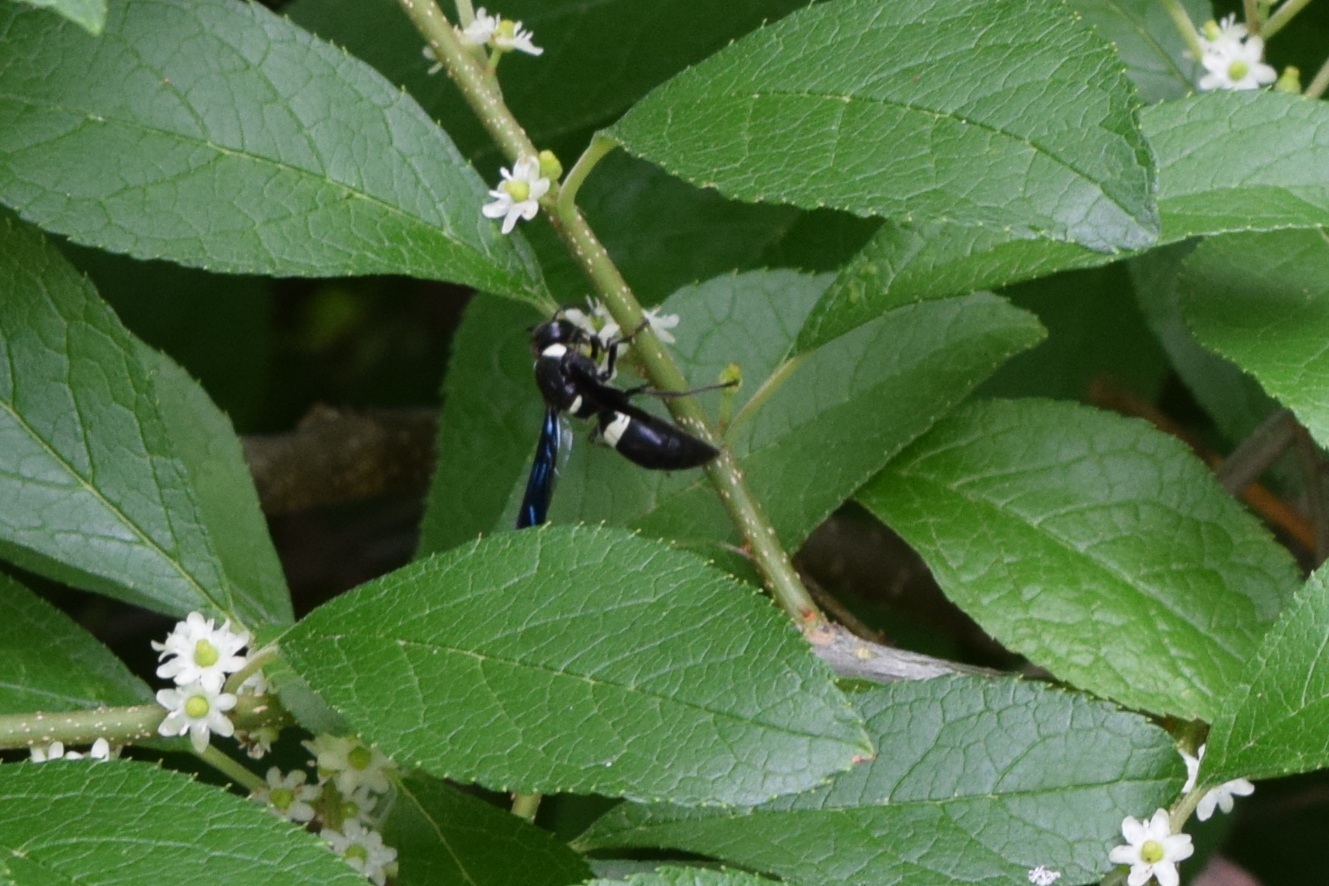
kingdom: Animalia
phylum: Arthropoda
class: Insecta
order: Hymenoptera
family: Eumenidae
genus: Monobia
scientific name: Monobia quadridens
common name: Four-toothed mason wasp
